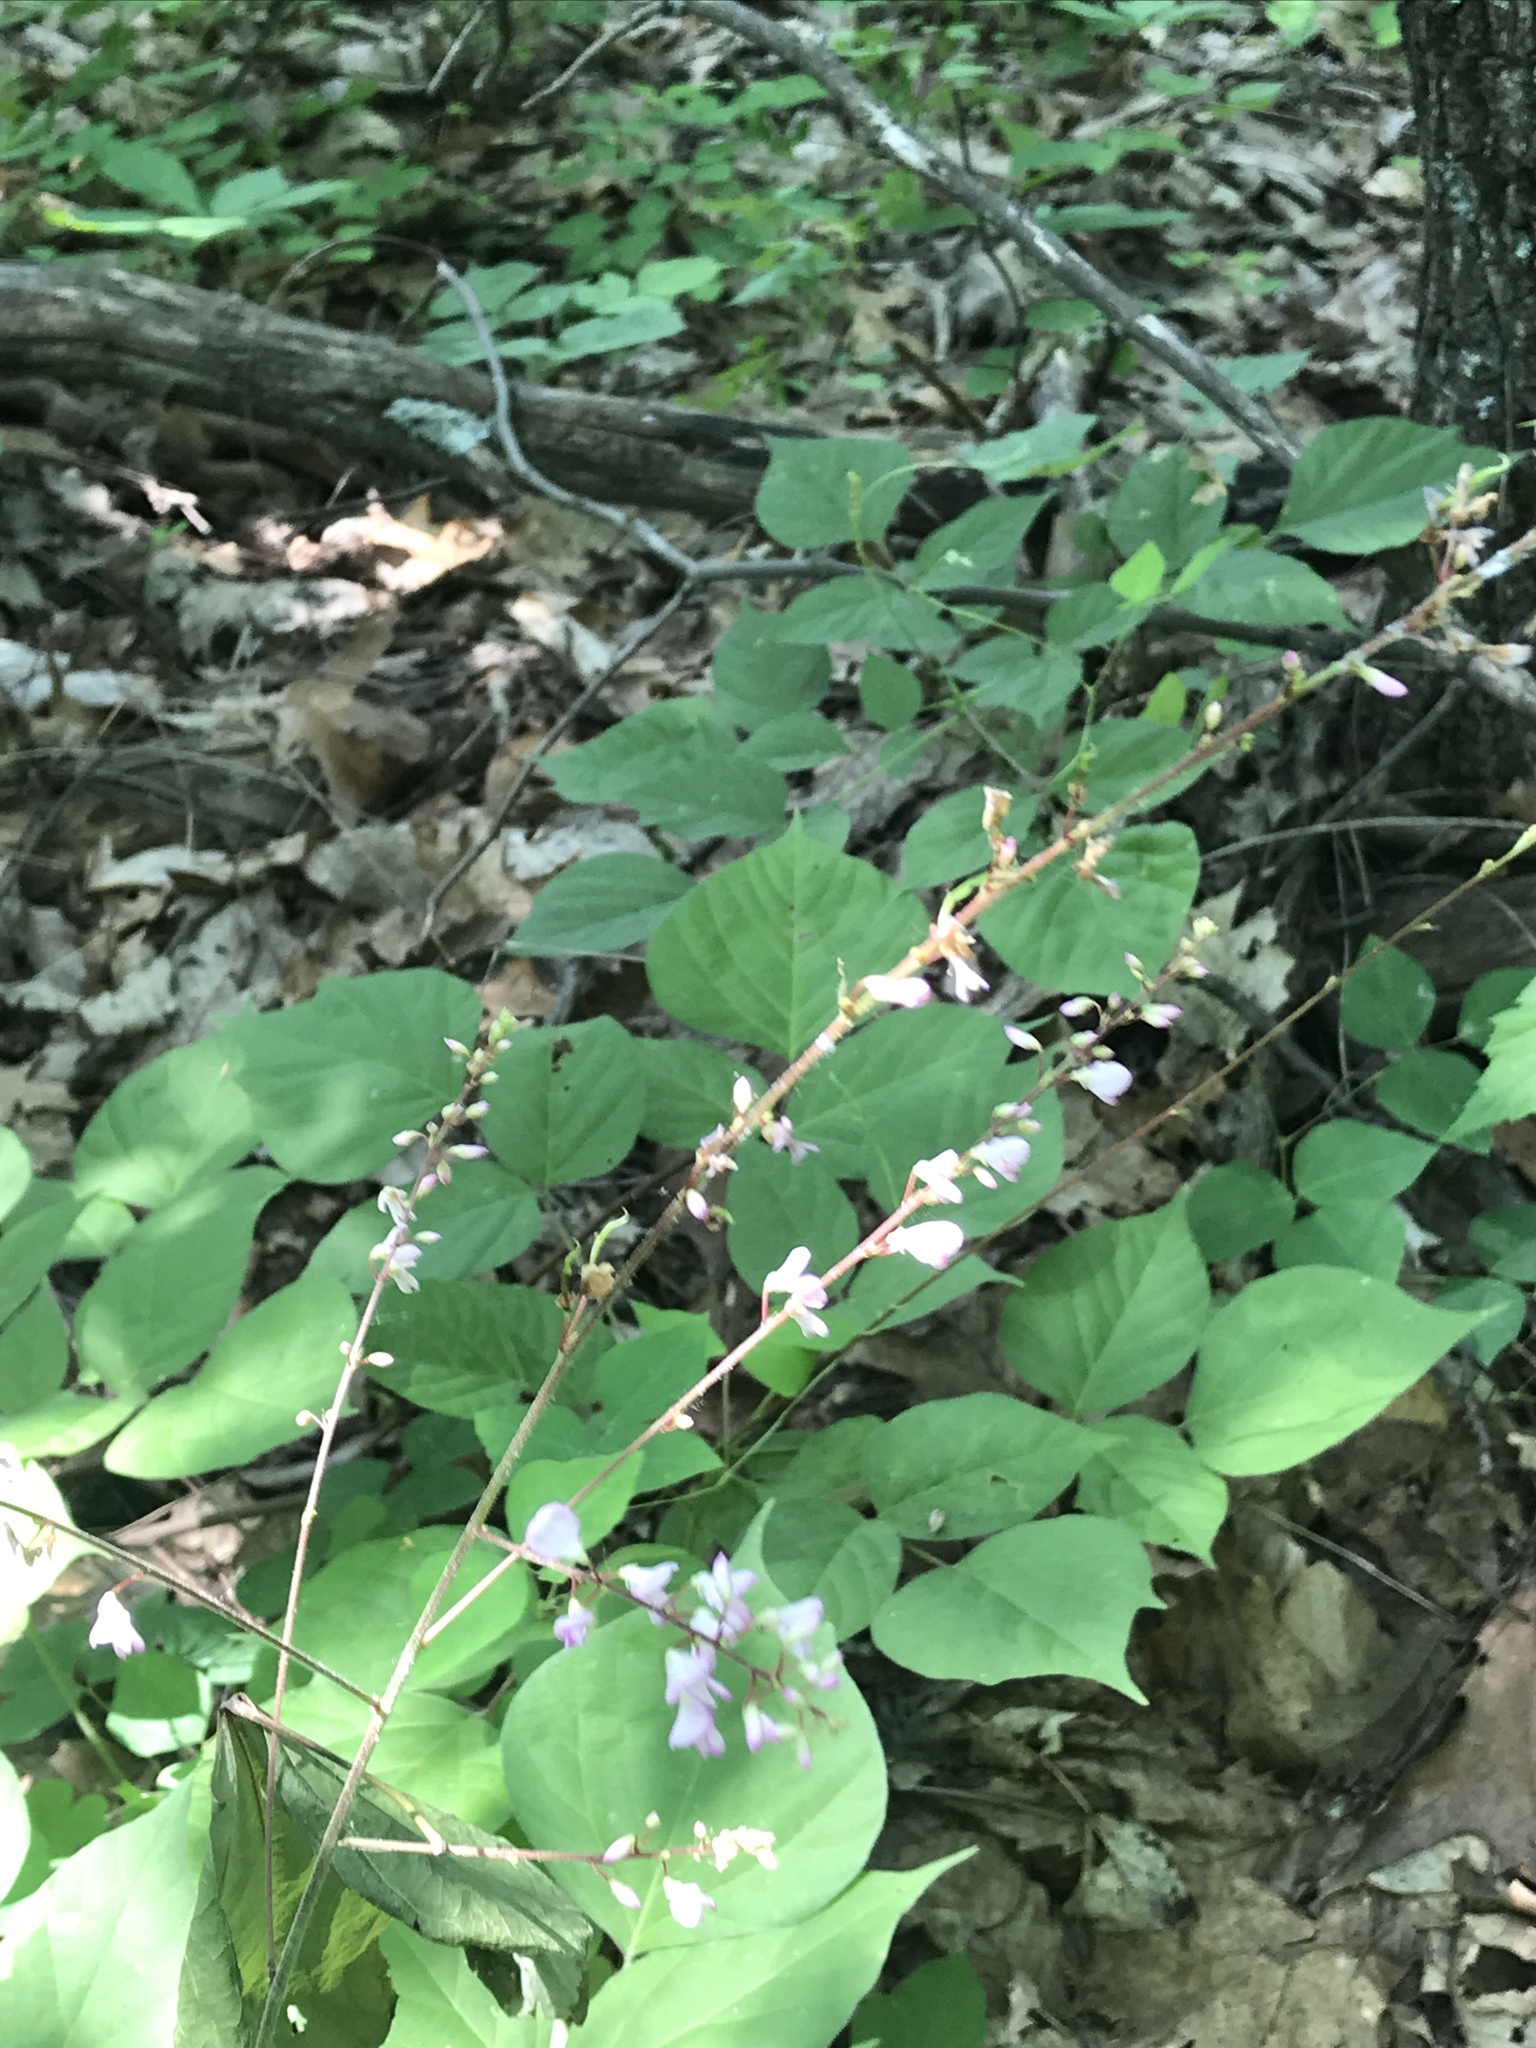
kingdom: Plantae
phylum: Tracheophyta
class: Magnoliopsida
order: Fabales
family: Fabaceae
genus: Hylodesmum
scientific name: Hylodesmum glutinosum
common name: Clustered-leaved tick-trefoil
